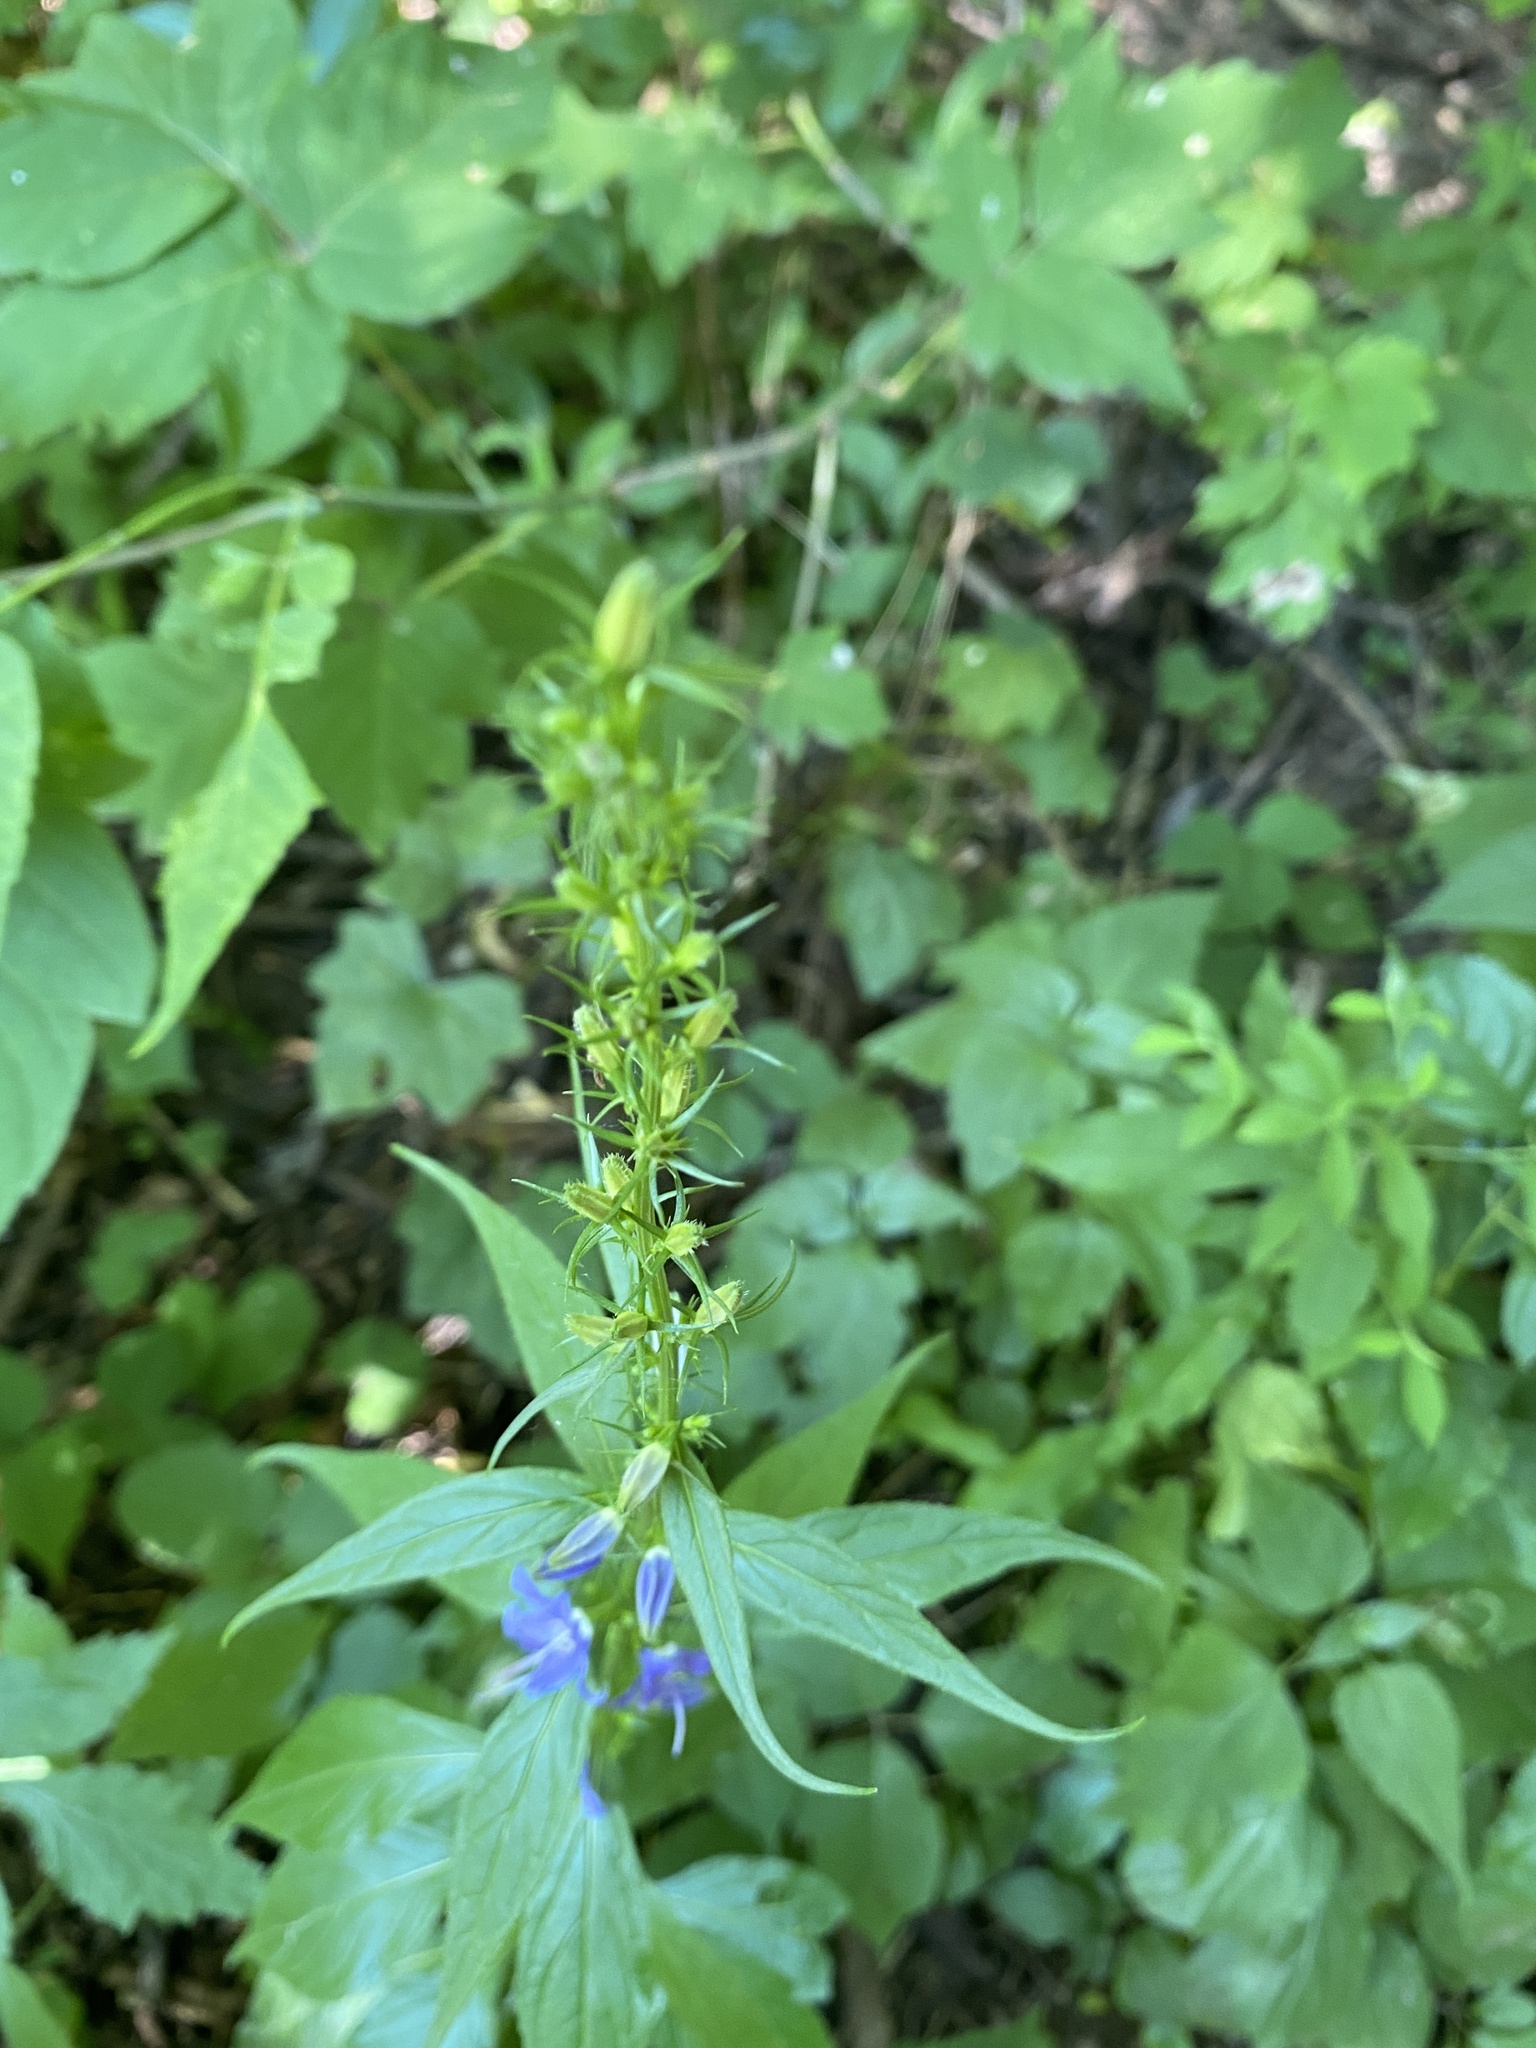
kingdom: Plantae
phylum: Tracheophyta
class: Magnoliopsida
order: Asterales
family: Campanulaceae
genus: Campanulastrum
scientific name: Campanulastrum americanum
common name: American bellflower
